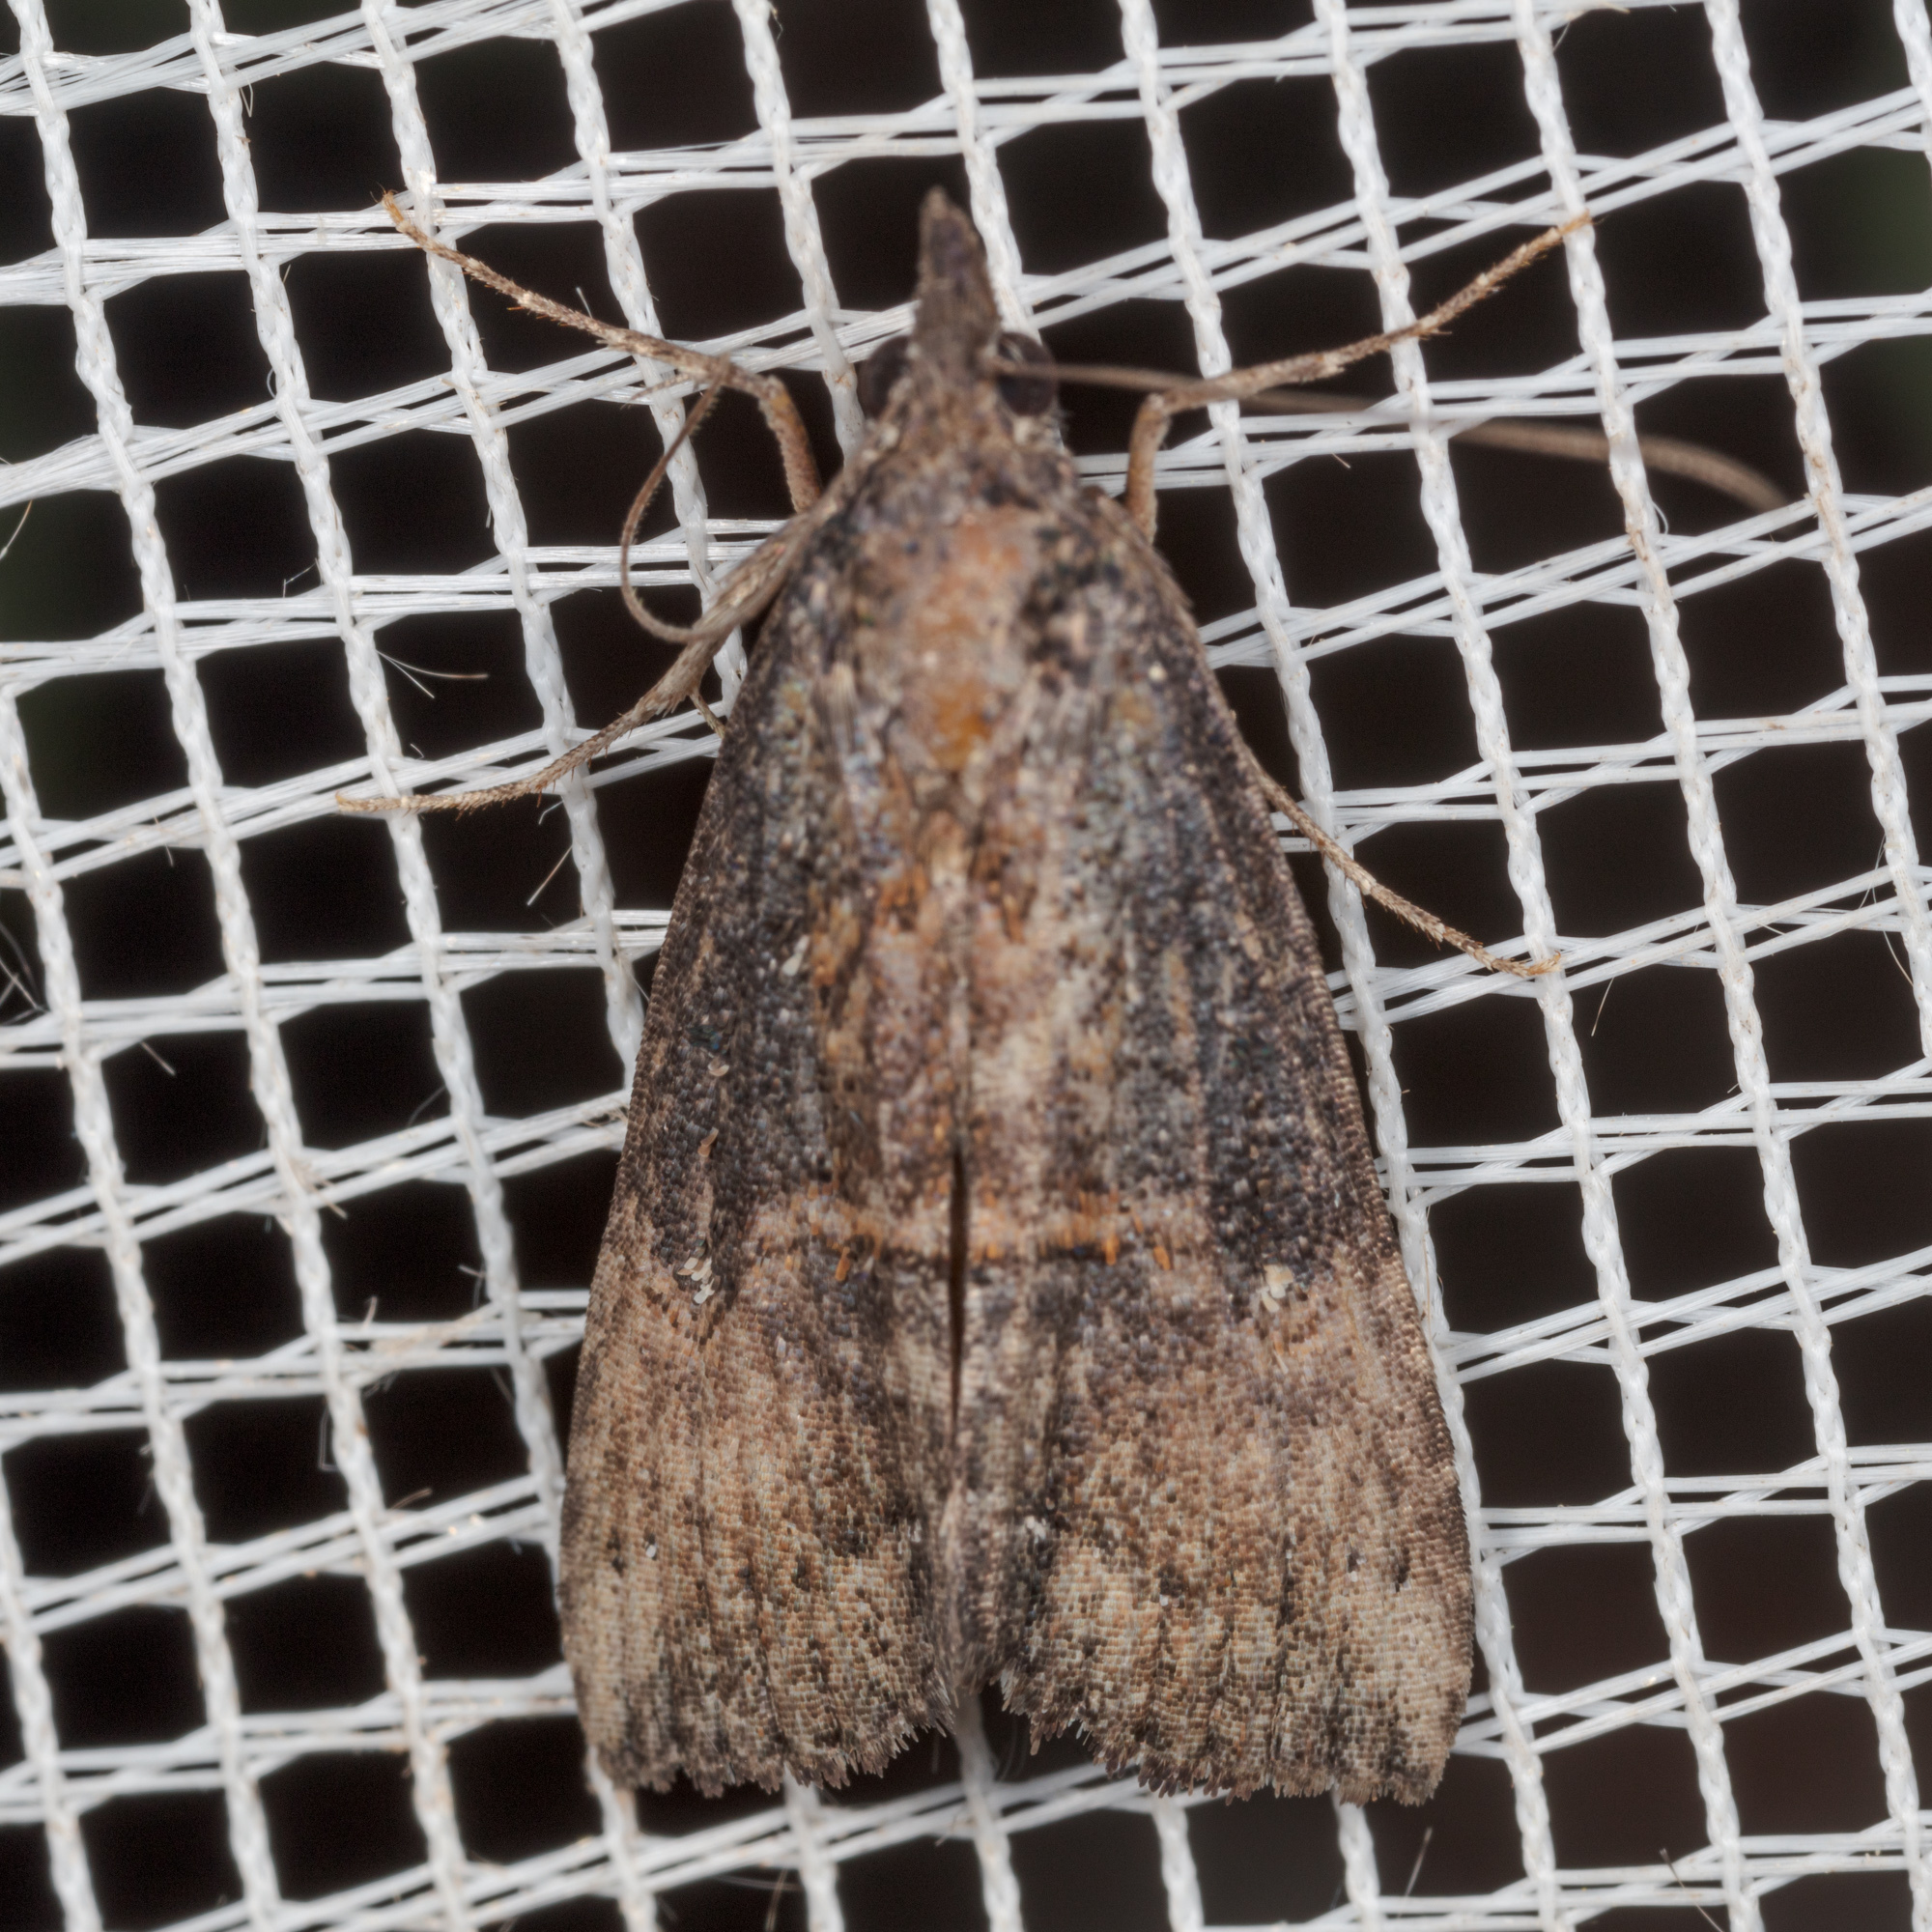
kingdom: Animalia
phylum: Arthropoda
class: Insecta
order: Lepidoptera
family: Erebidae
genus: Hypena
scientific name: Hypena scabra
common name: Green cloverworm
